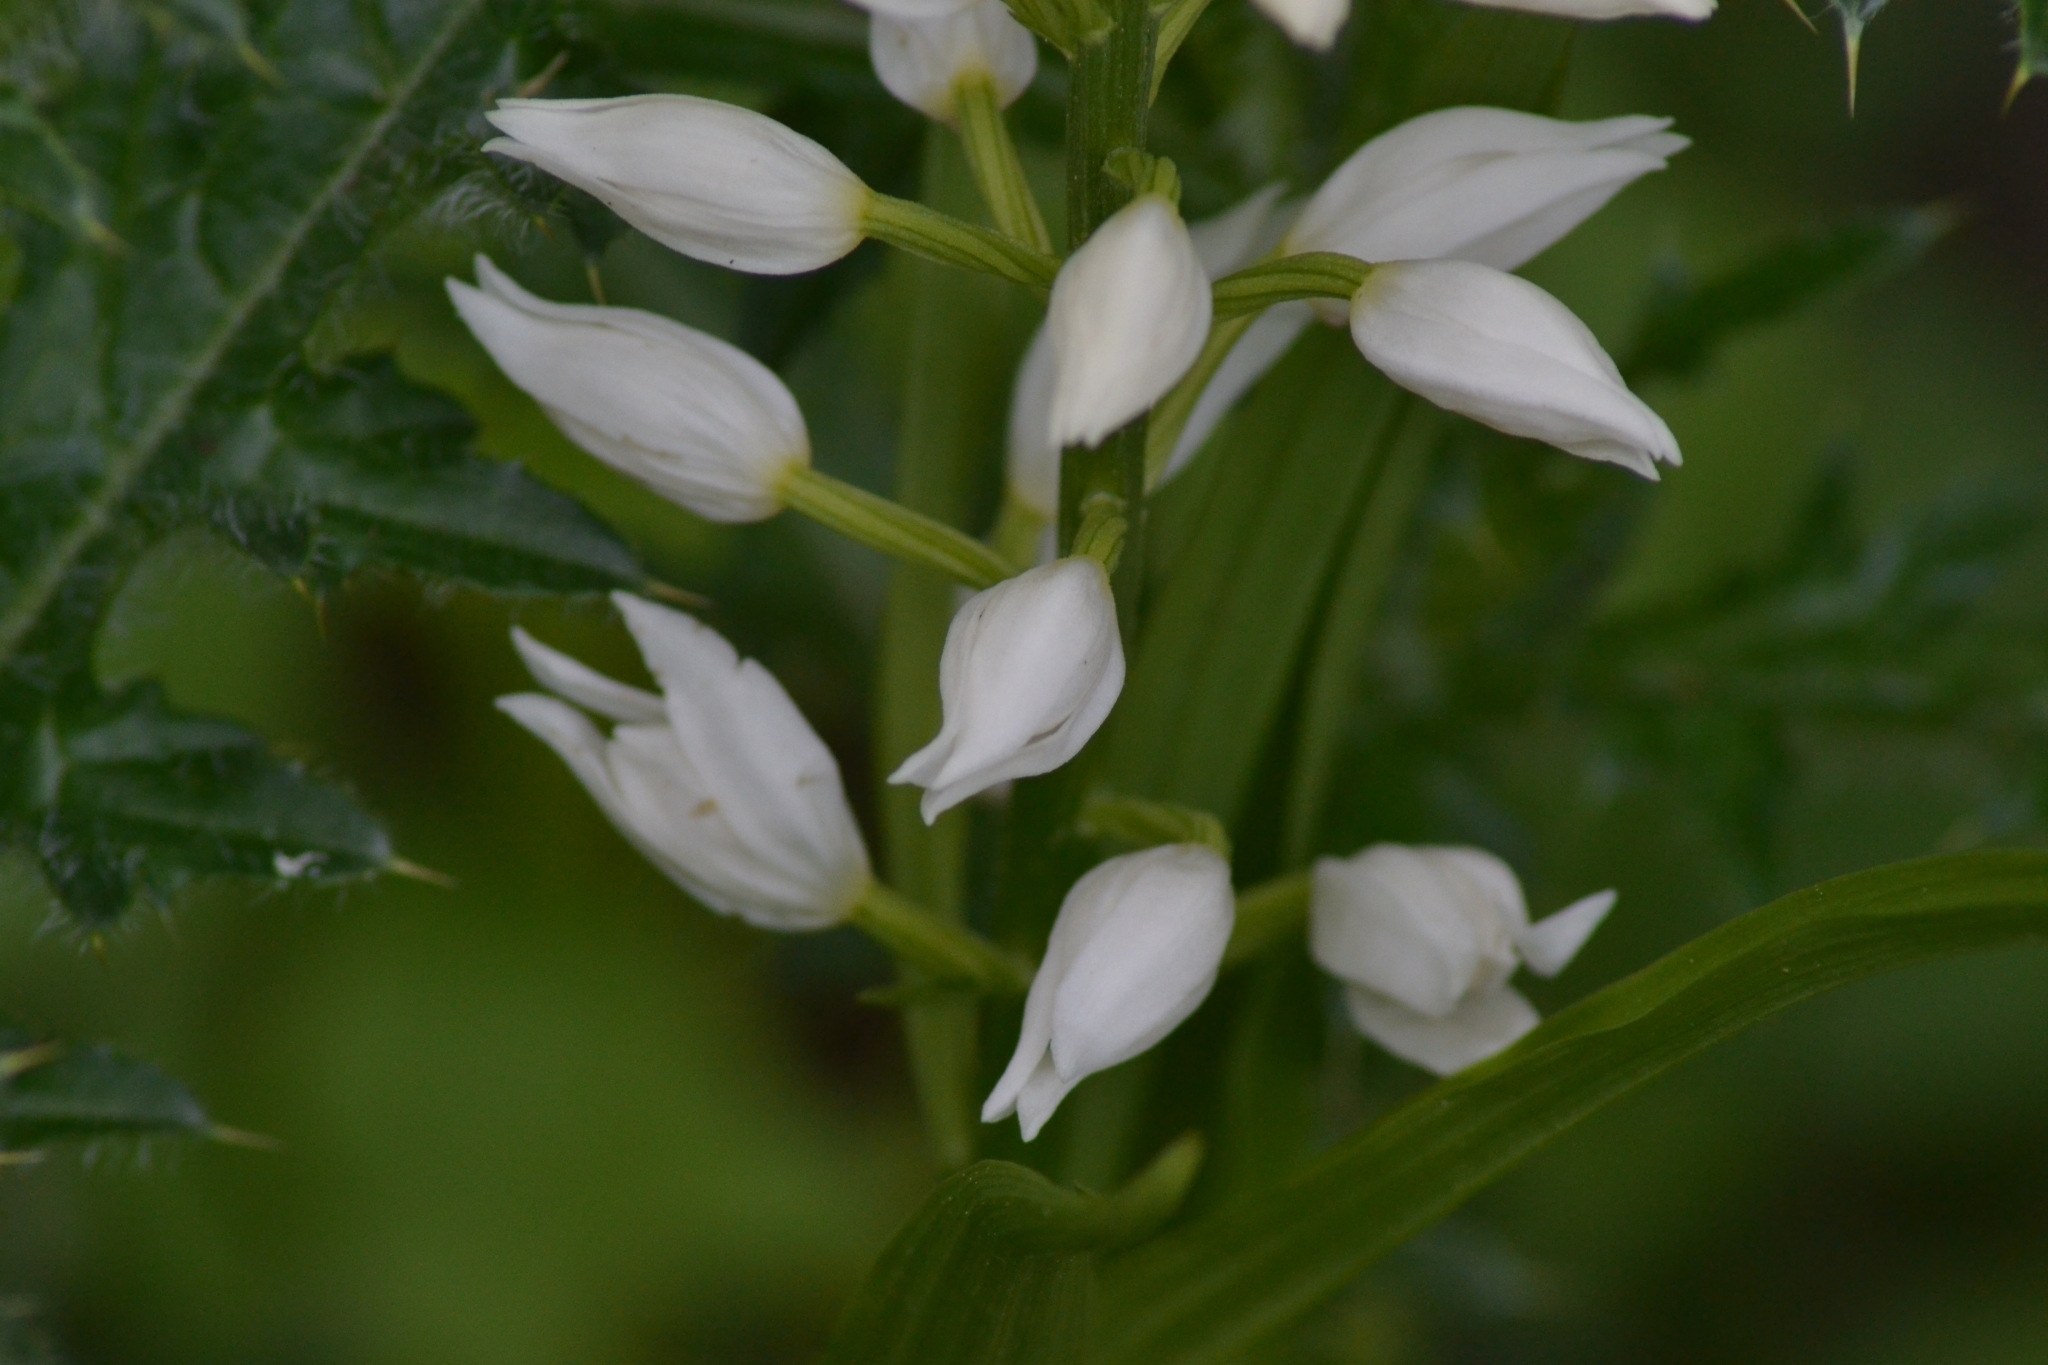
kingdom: Plantae
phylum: Tracheophyta
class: Liliopsida
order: Asparagales
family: Orchidaceae
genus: Cephalanthera
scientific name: Cephalanthera longifolia
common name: Narrow-leaved helleborine
